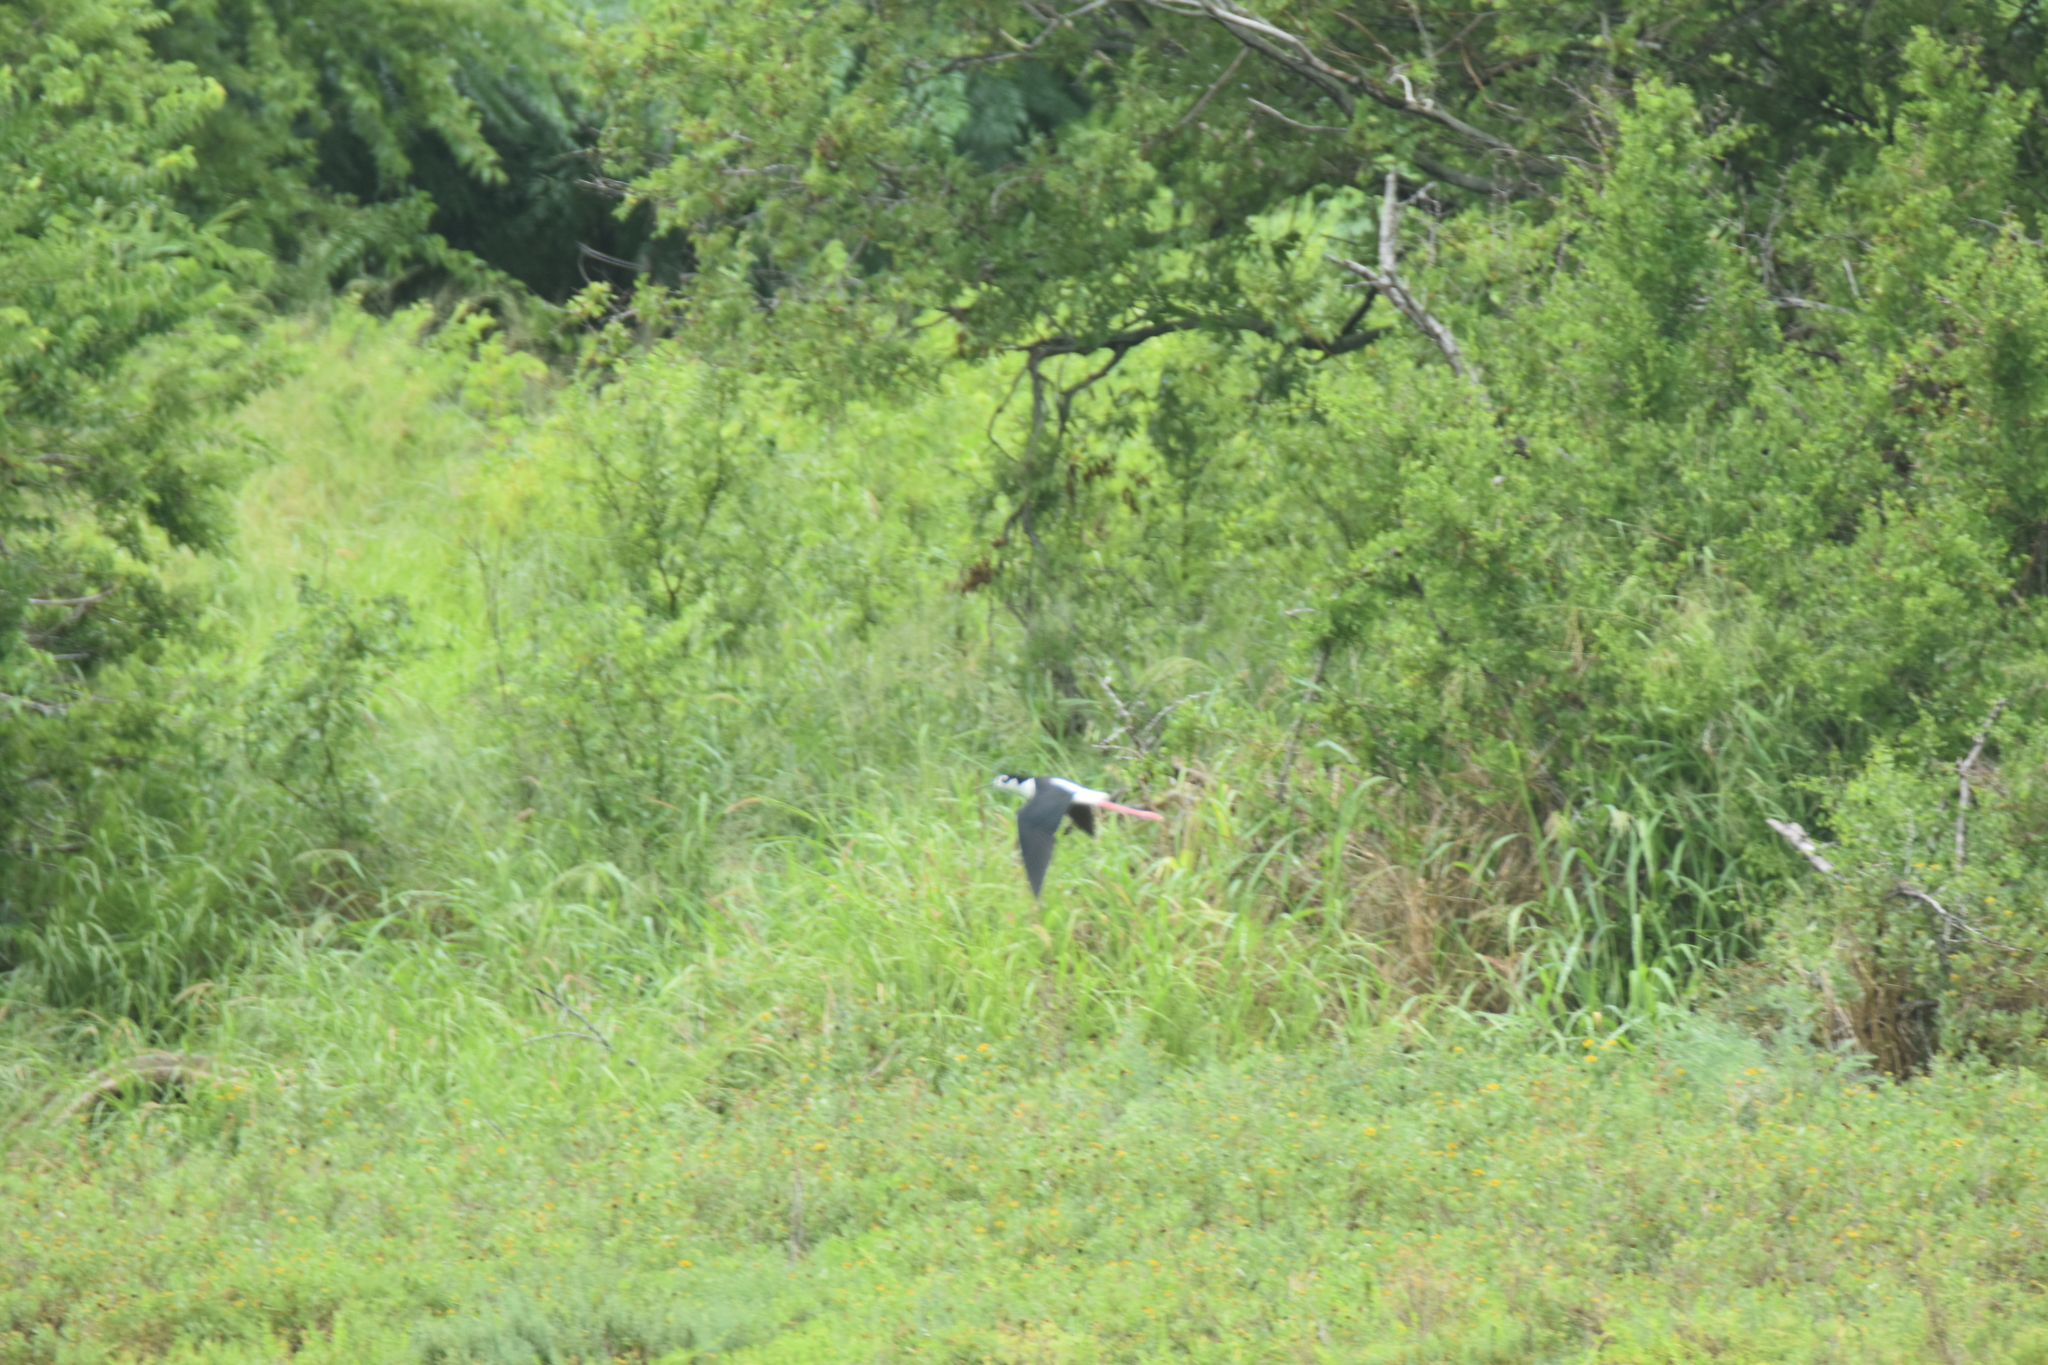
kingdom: Animalia
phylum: Chordata
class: Aves
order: Charadriiformes
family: Recurvirostridae
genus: Himantopus
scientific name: Himantopus mexicanus
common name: Black-necked stilt
